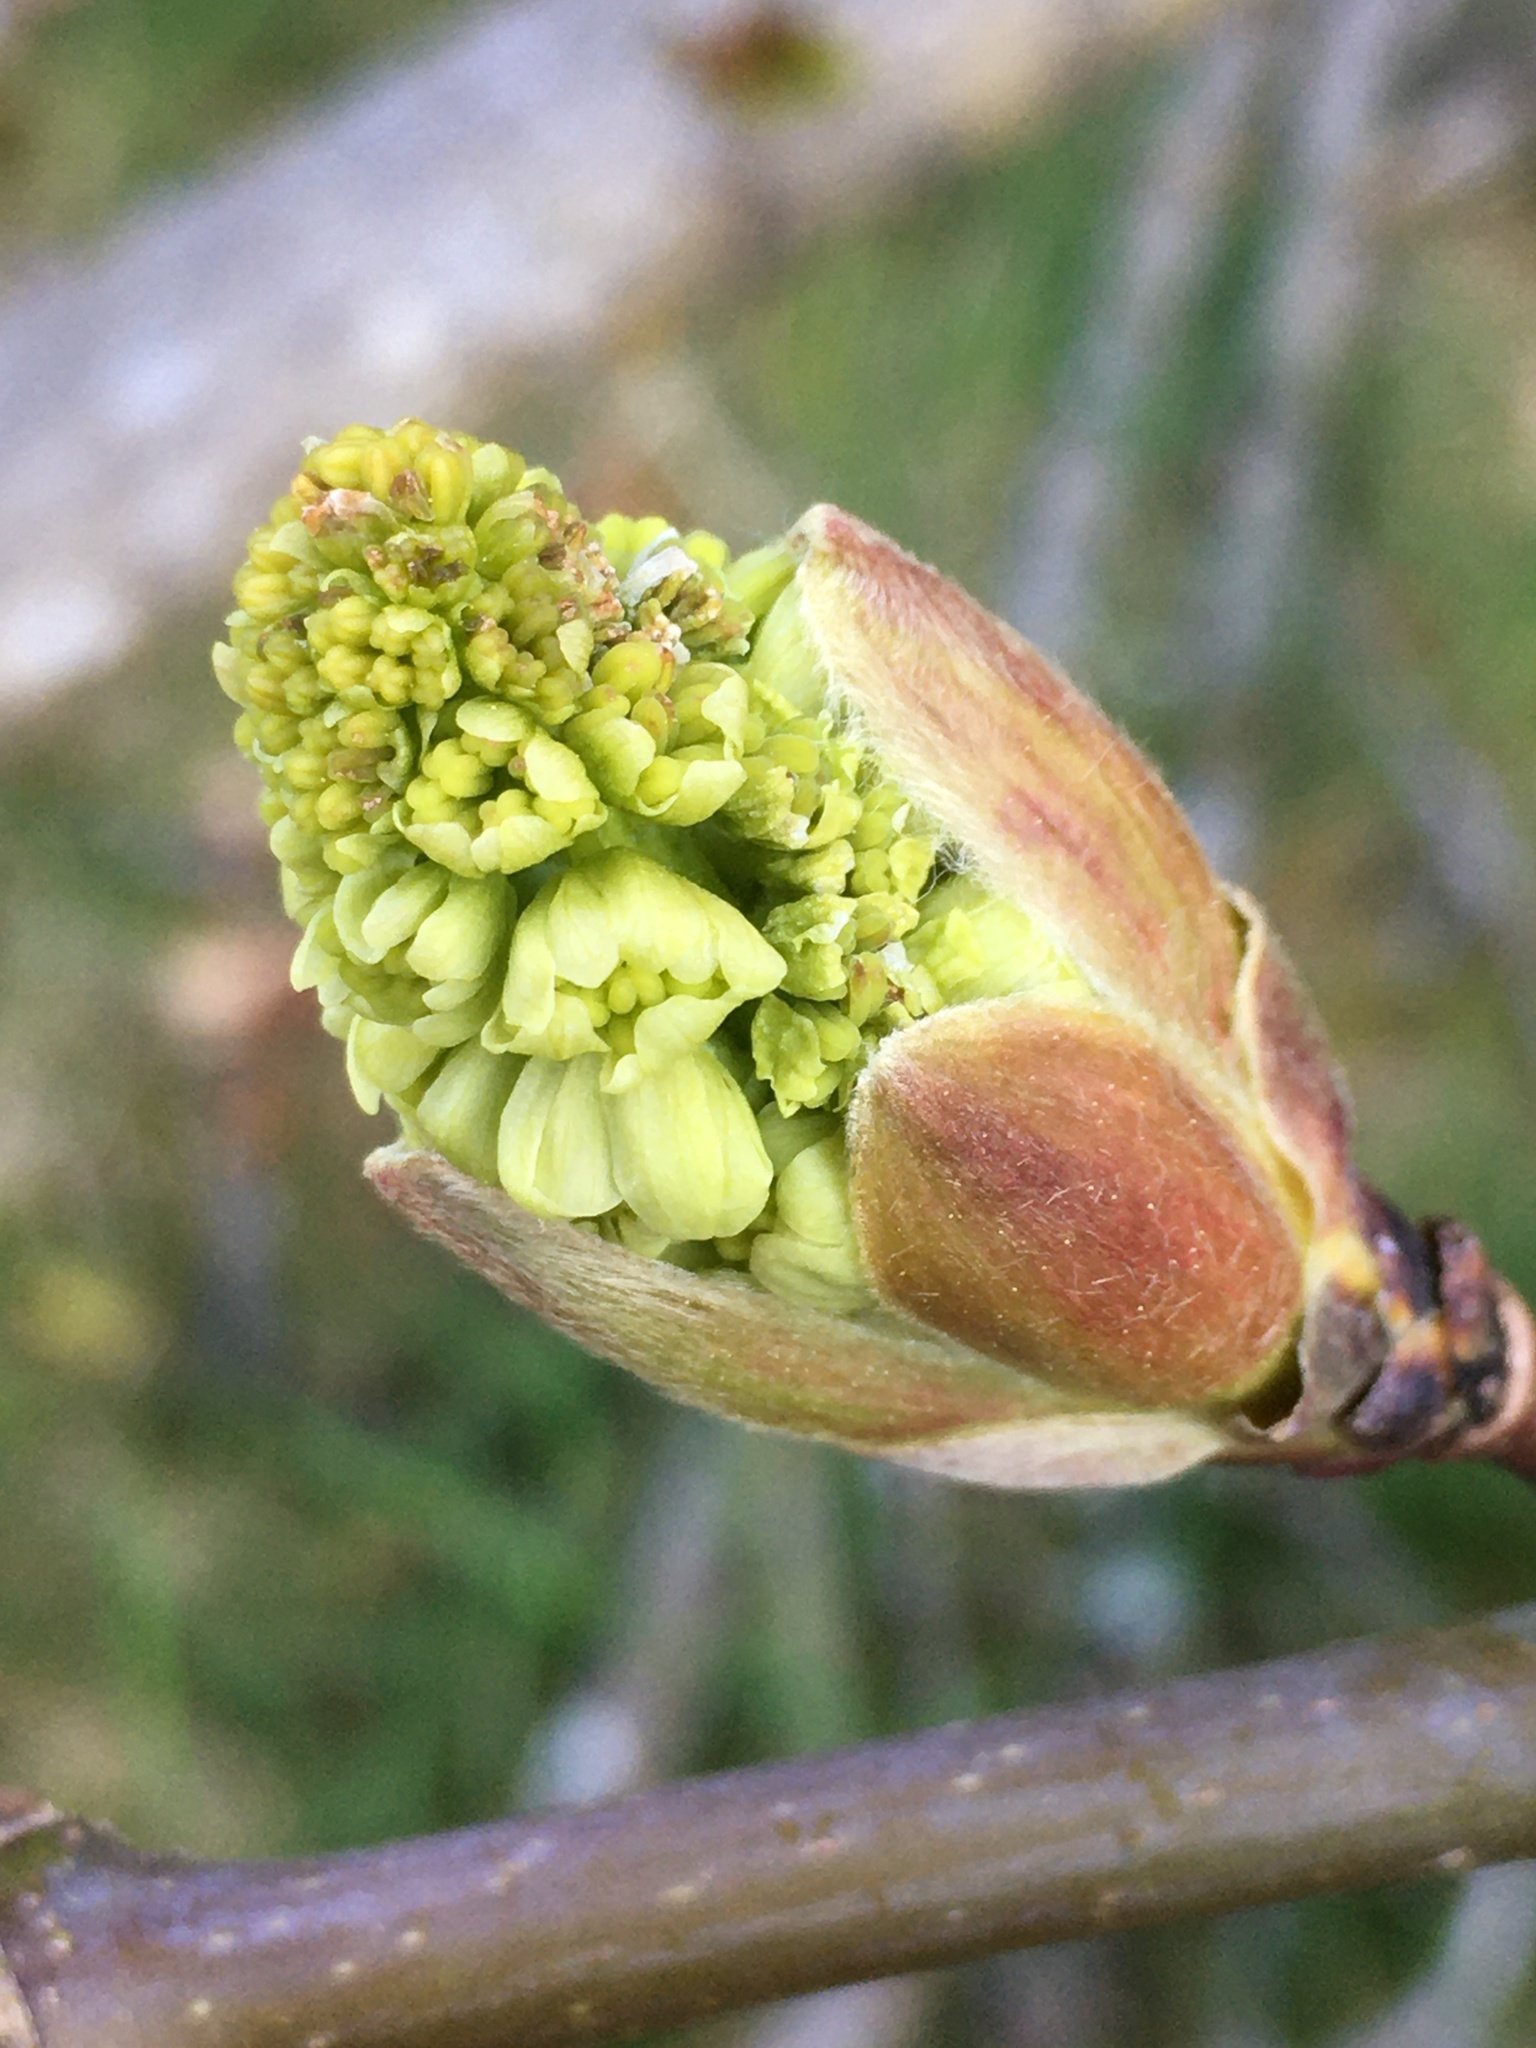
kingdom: Plantae
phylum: Tracheophyta
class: Magnoliopsida
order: Sapindales
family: Sapindaceae
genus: Acer
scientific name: Acer macrophyllum
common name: Oregon maple
